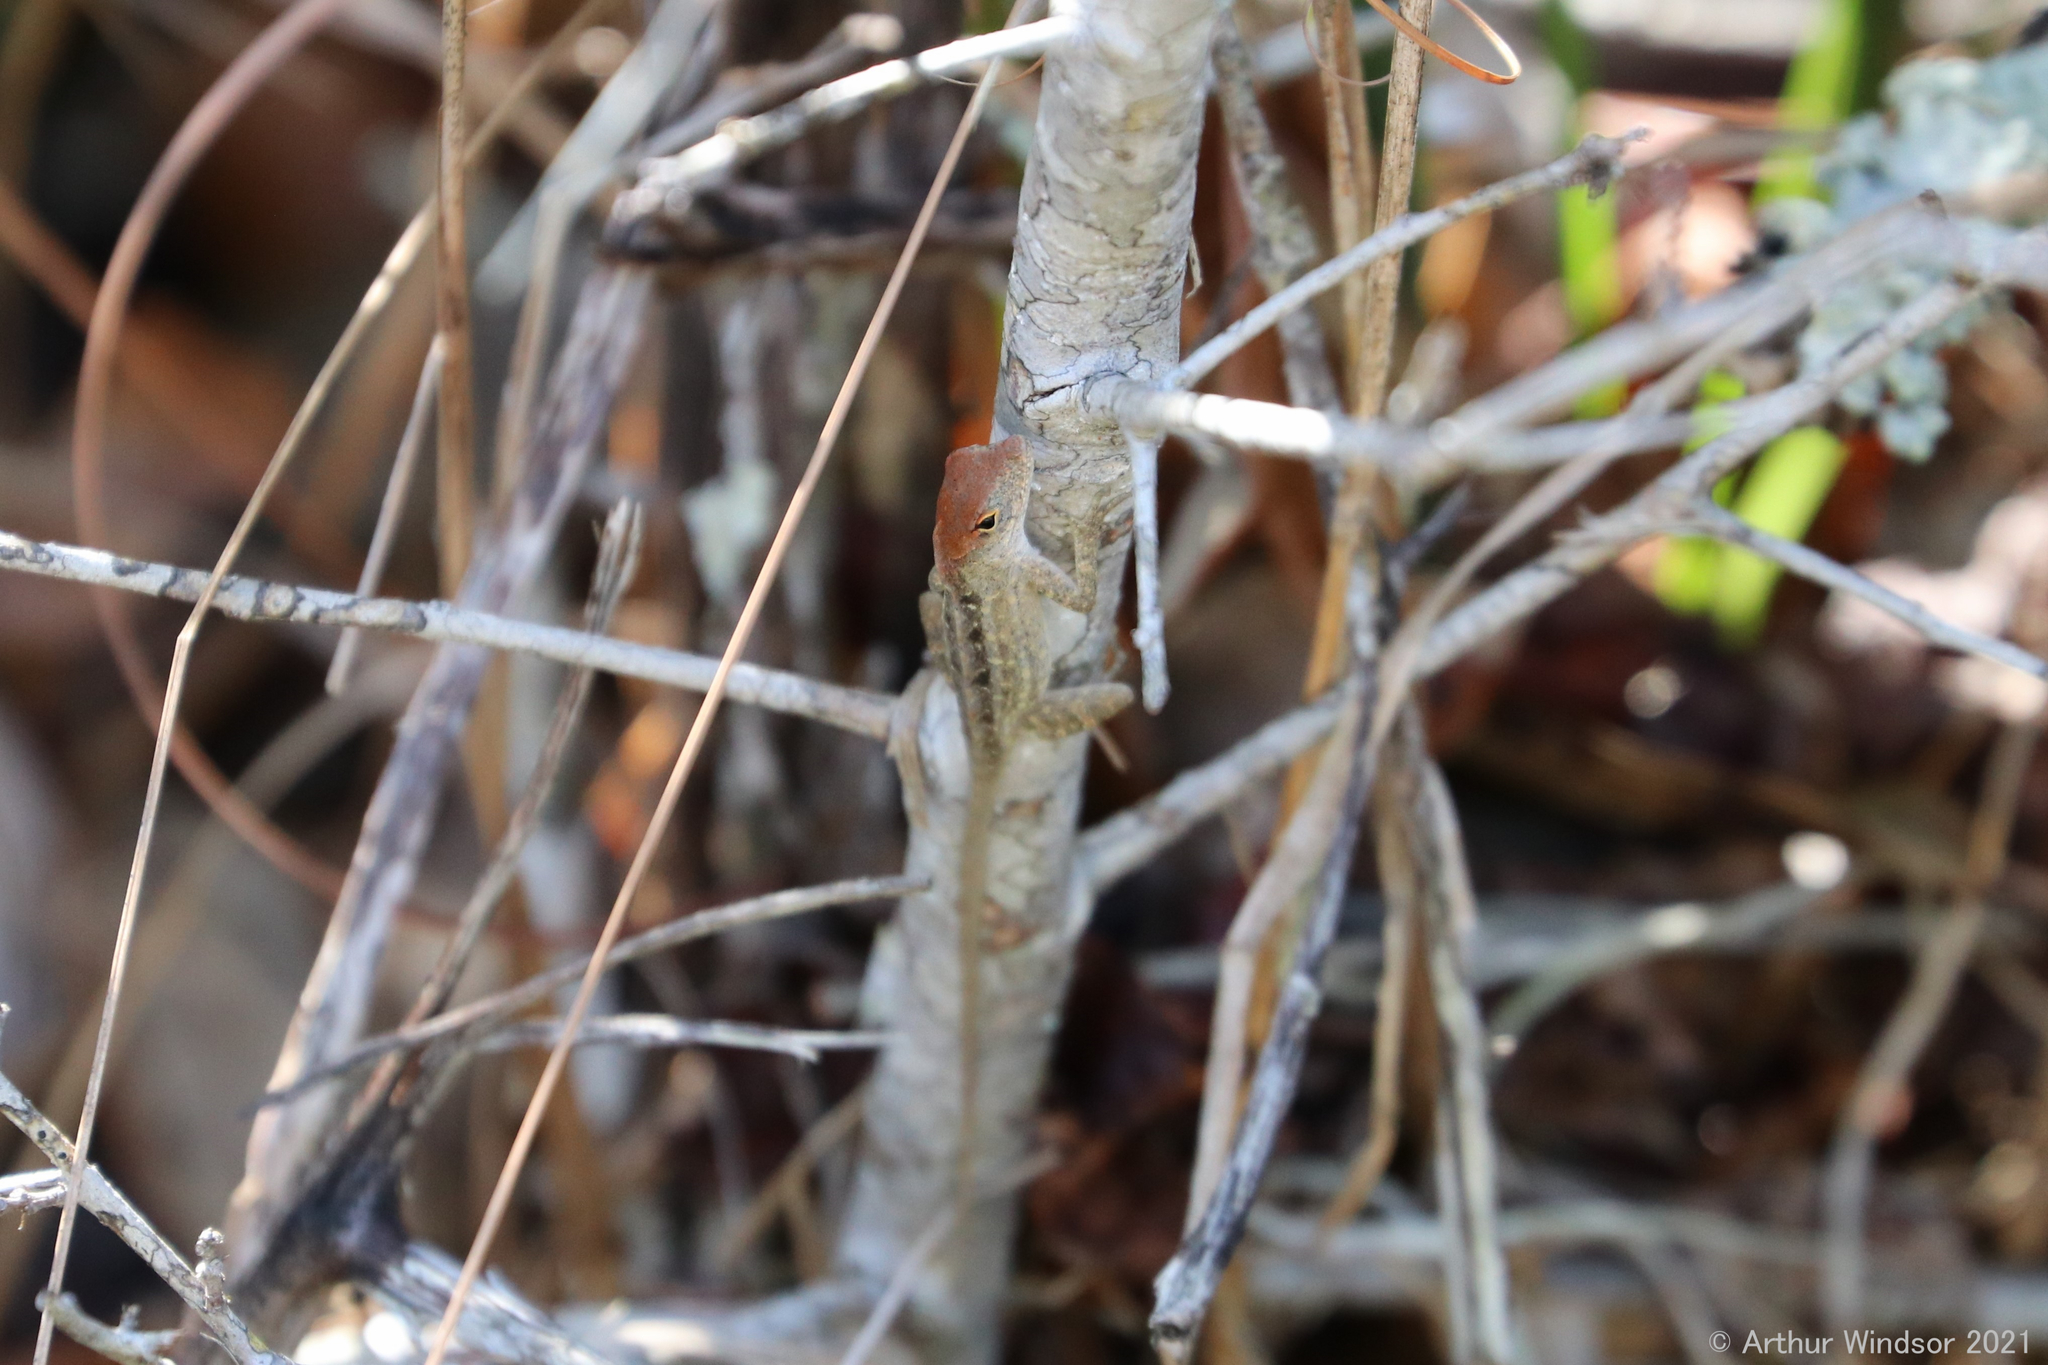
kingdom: Animalia
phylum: Chordata
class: Squamata
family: Dactyloidae
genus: Anolis
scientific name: Anolis sagrei
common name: Brown anole
